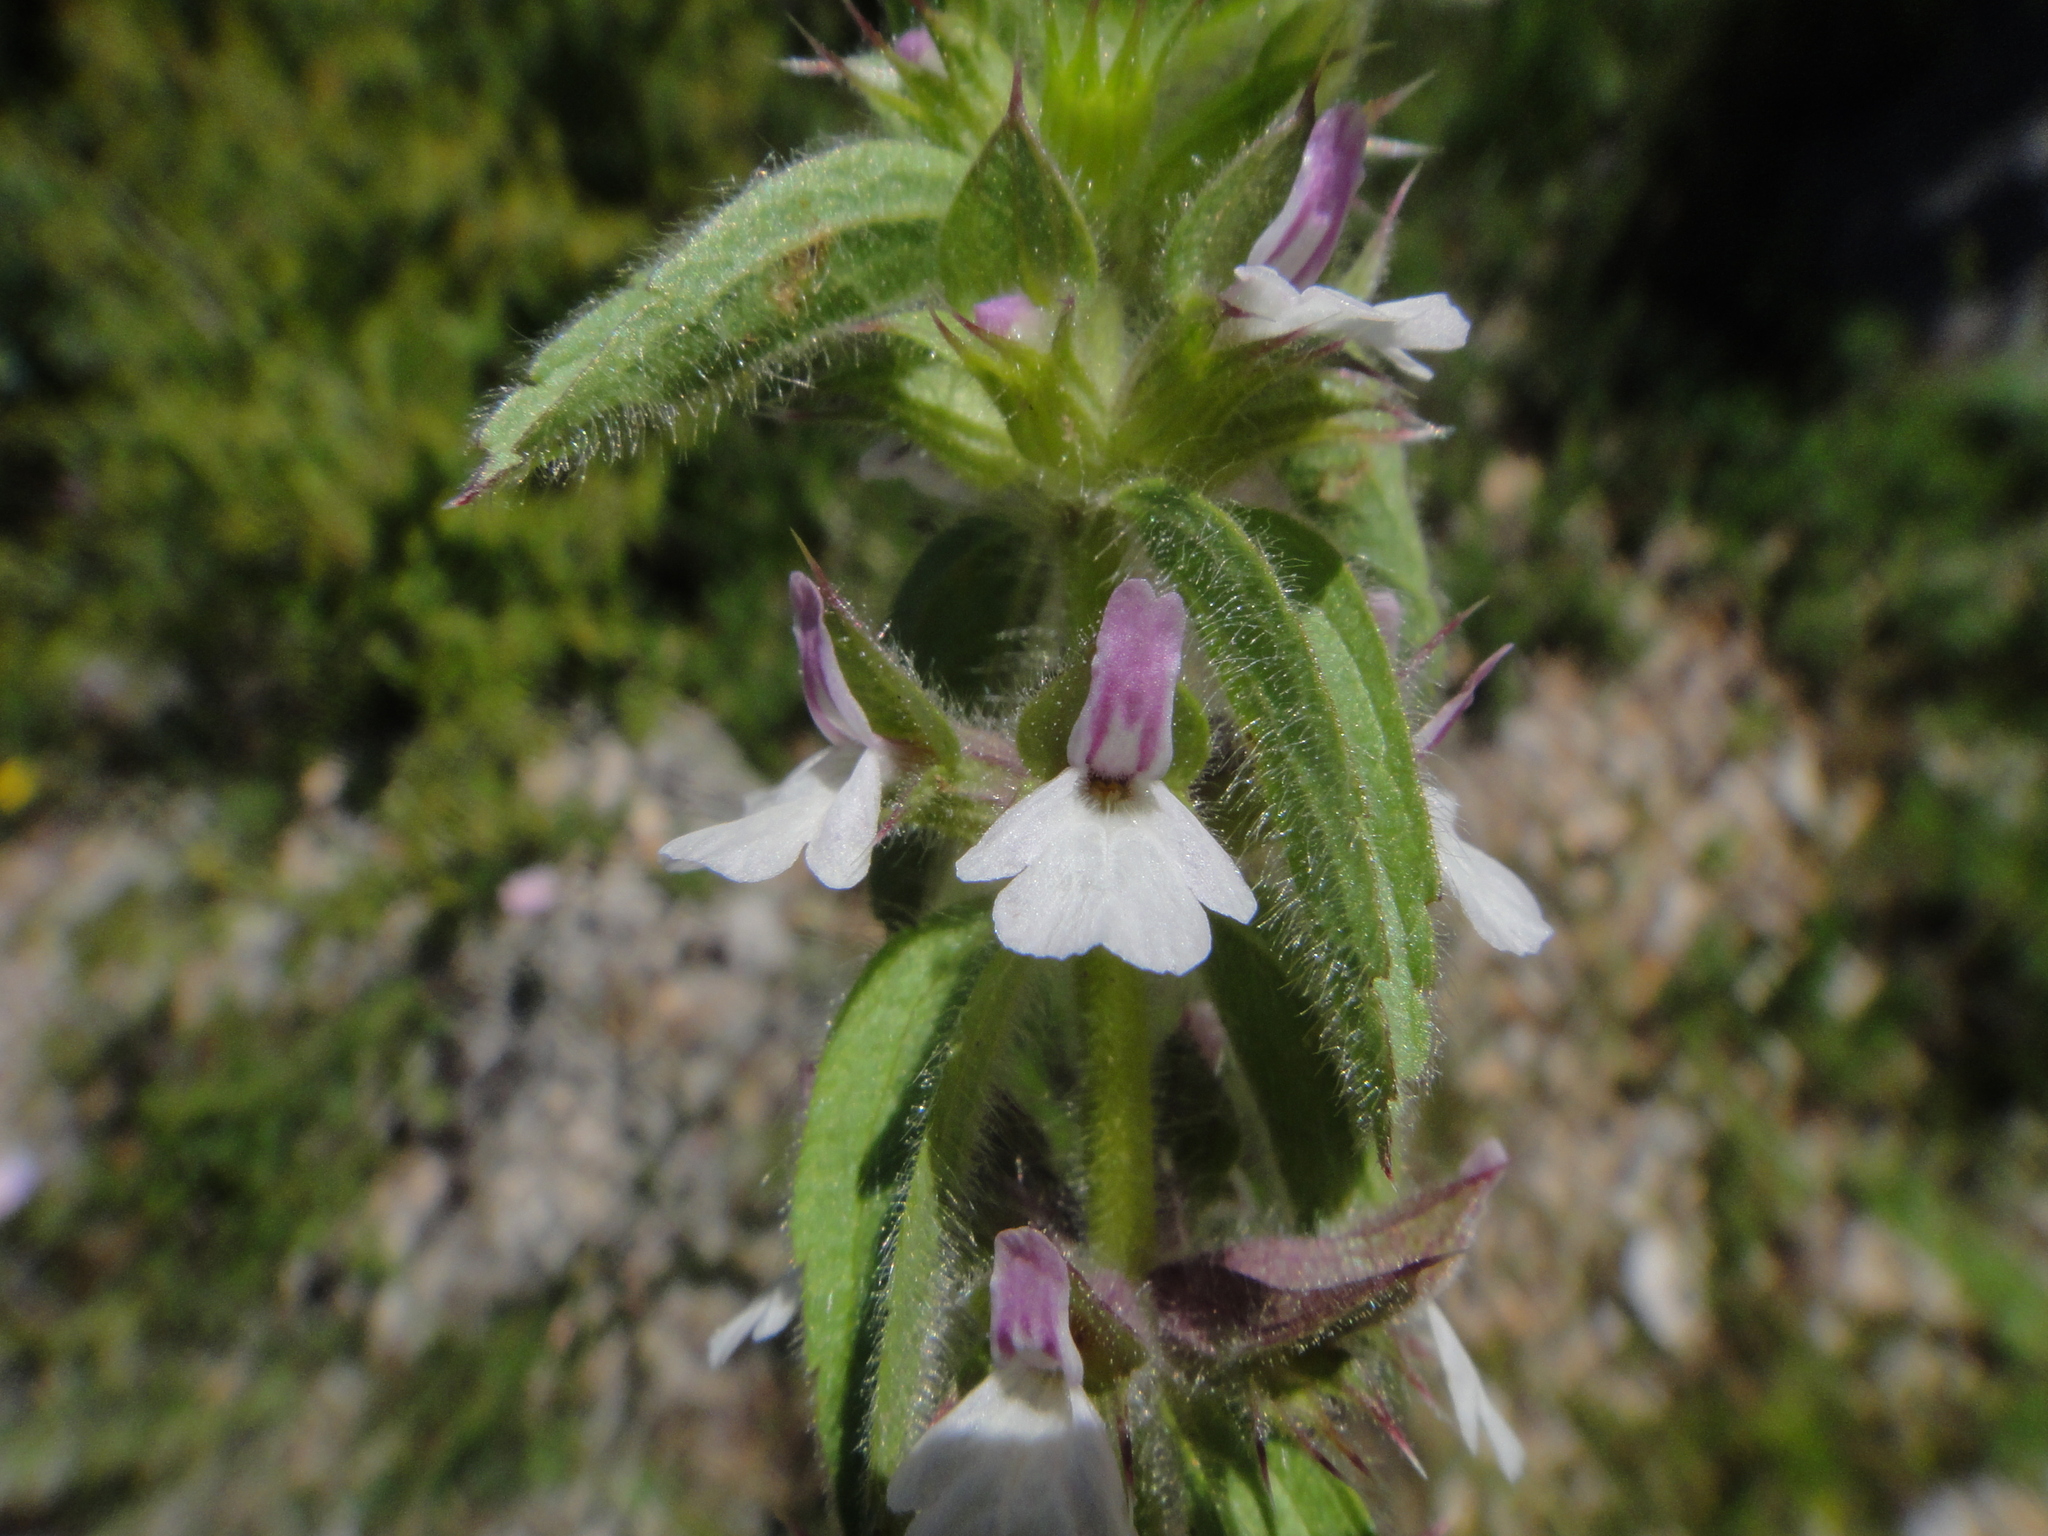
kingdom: Plantae
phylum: Tracheophyta
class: Magnoliopsida
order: Lamiales
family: Lamiaceae
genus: Sideritis
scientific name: Sideritis romana
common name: Simplebeak ironwort
